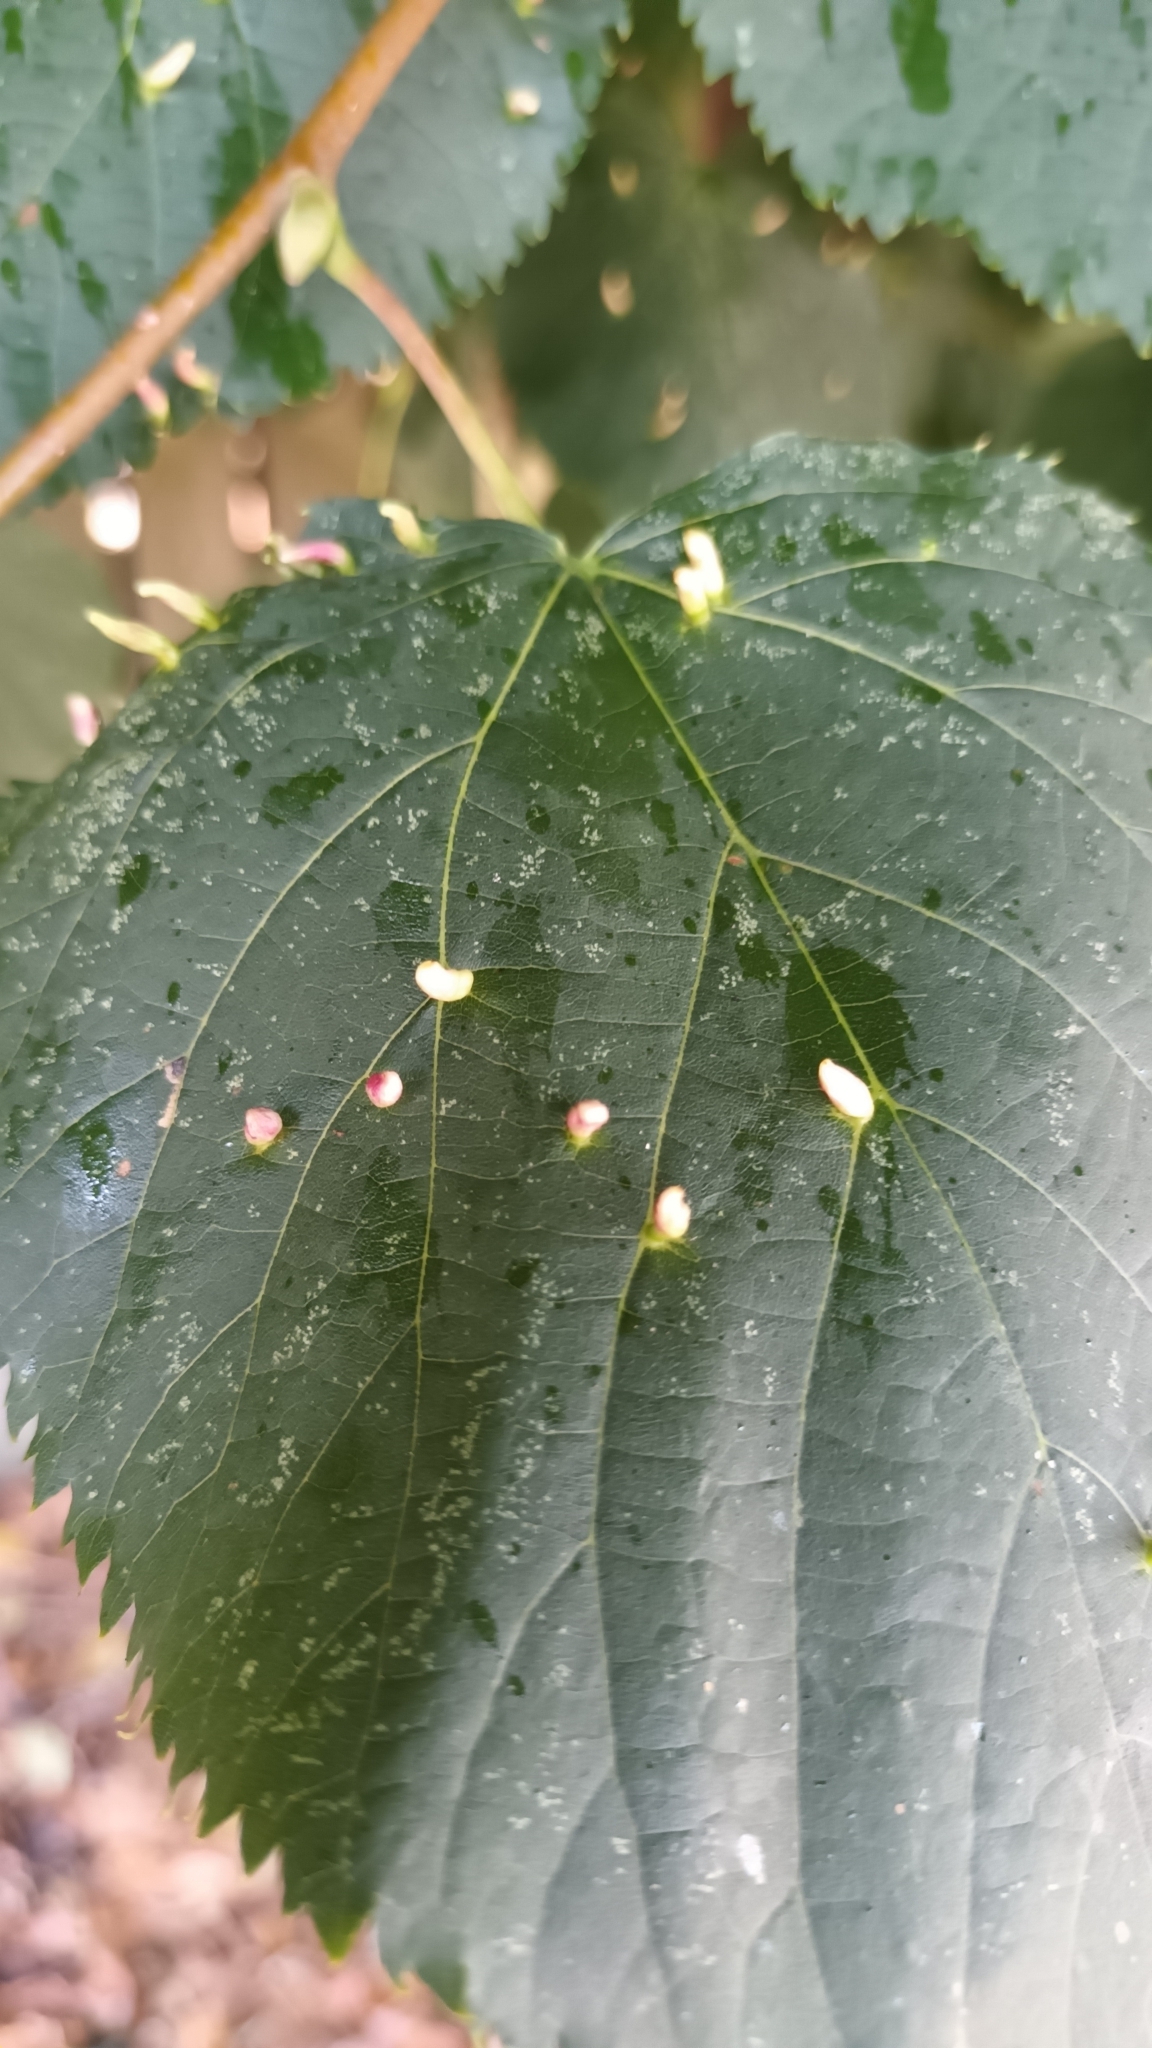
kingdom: Animalia
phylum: Arthropoda
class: Arachnida
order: Trombidiformes
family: Eriophyidae
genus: Eriophyes
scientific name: Eriophyes tiliae
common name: Red nail gall mite
